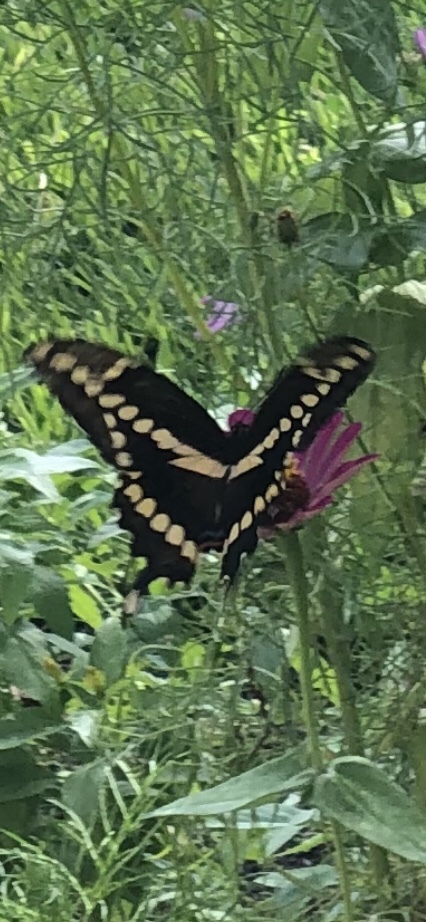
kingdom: Animalia
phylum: Arthropoda
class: Insecta
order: Lepidoptera
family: Papilionidae
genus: Papilio
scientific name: Papilio cresphontes
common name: Giant swallowtail
